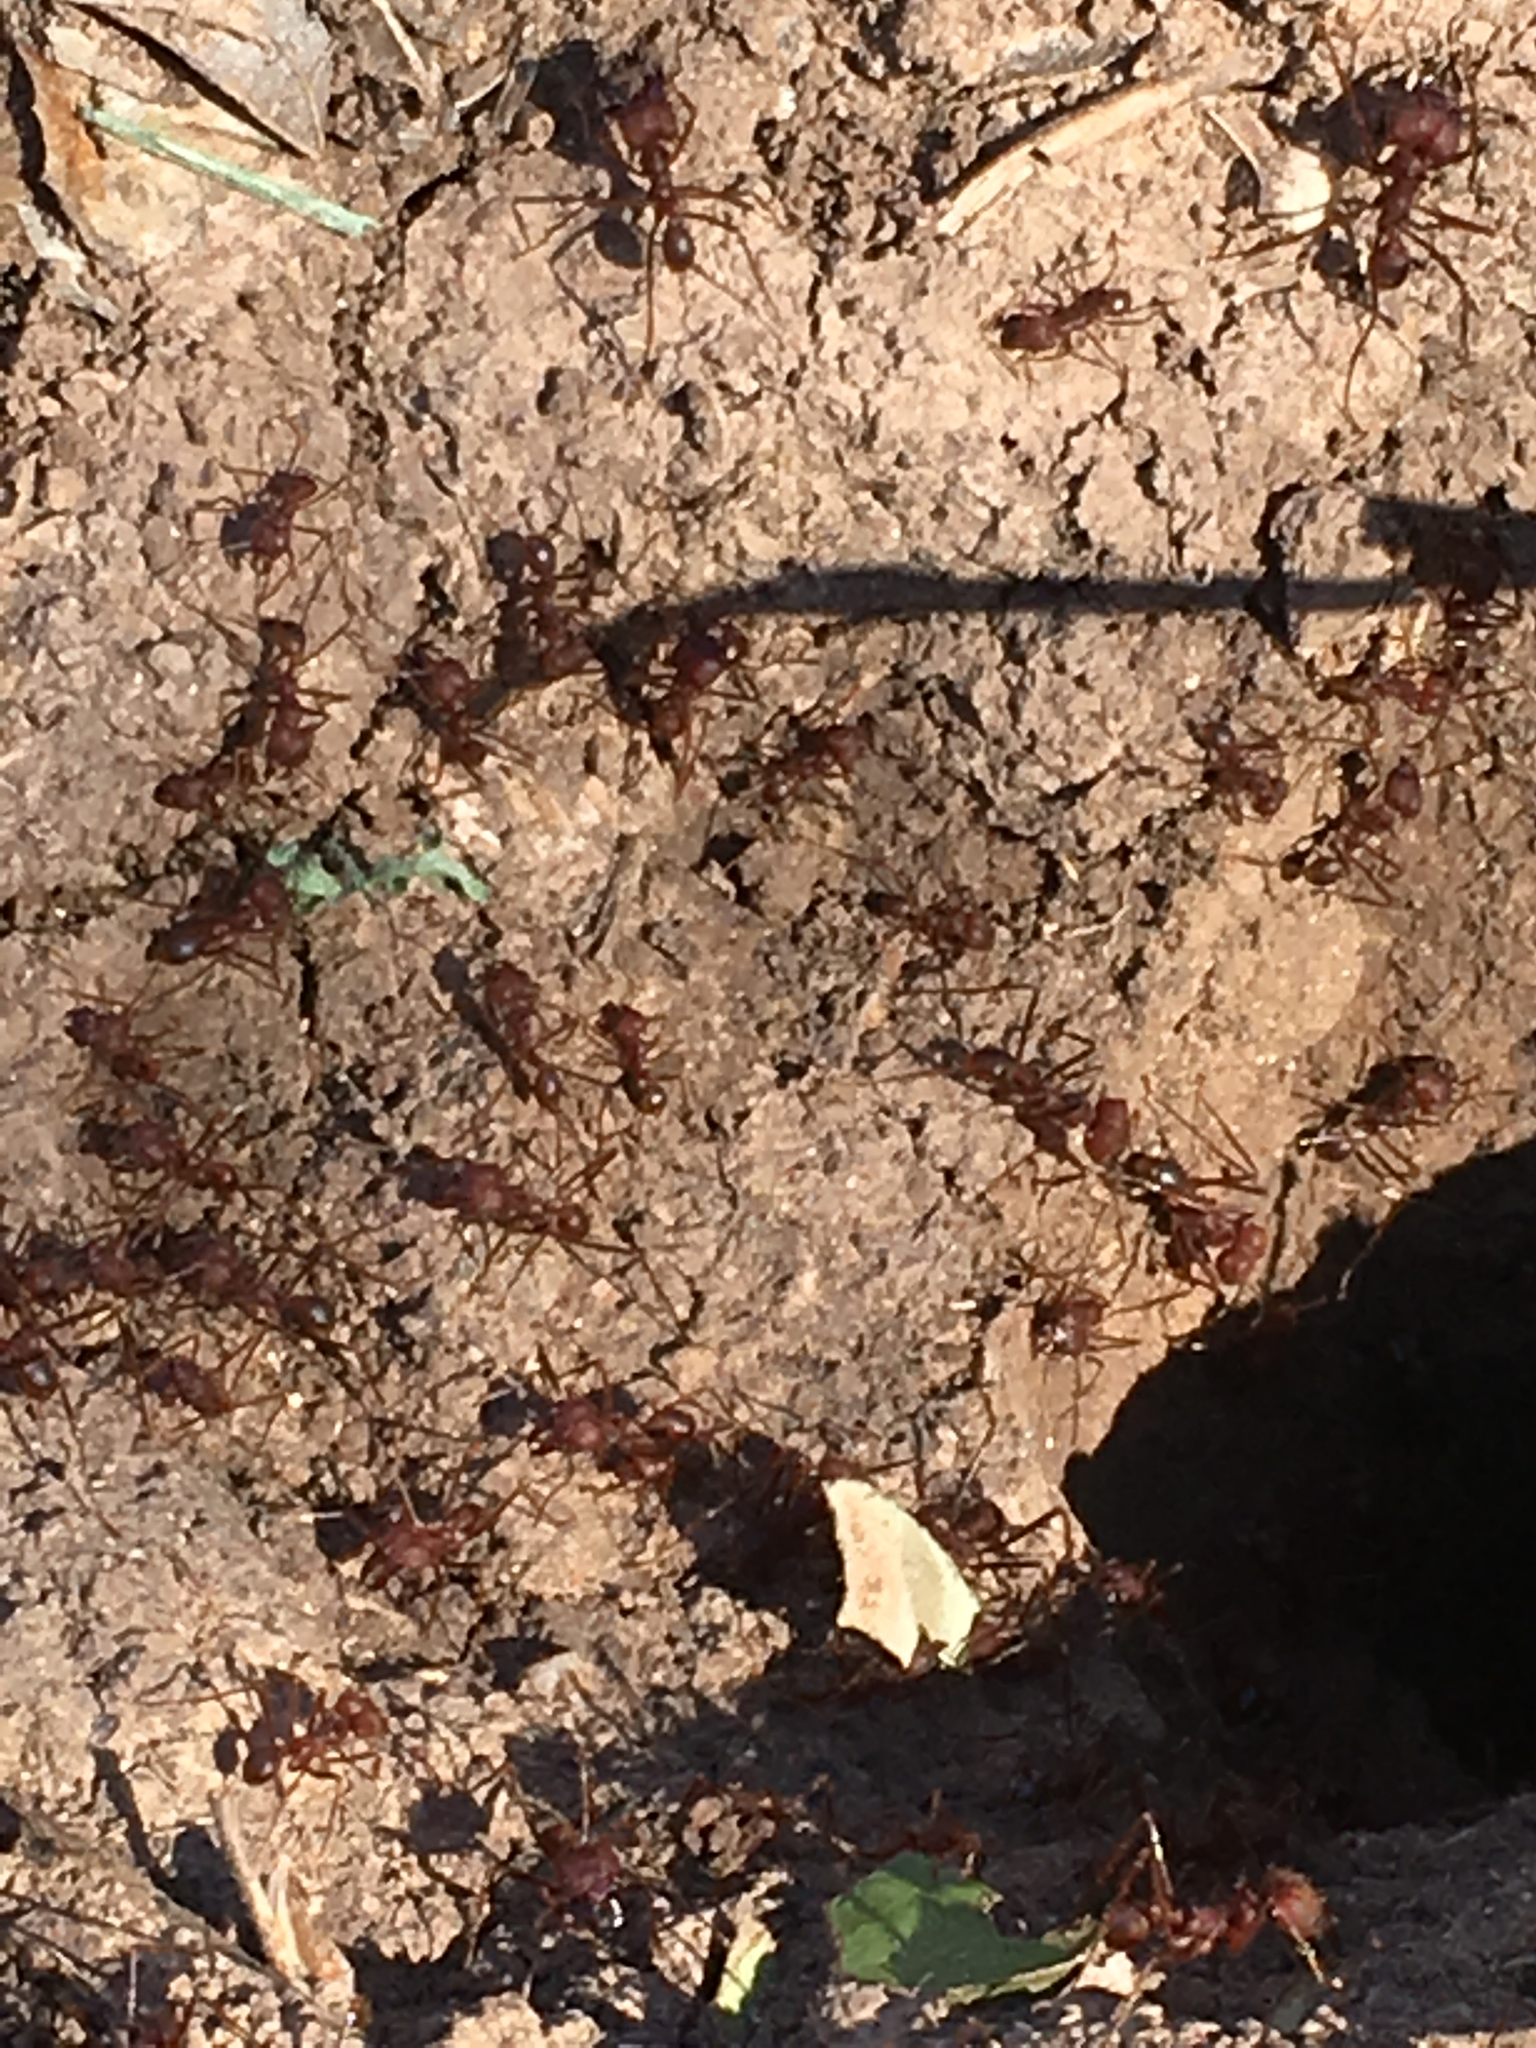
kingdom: Animalia
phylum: Arthropoda
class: Insecta
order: Hymenoptera
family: Formicidae
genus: Atta
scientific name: Atta texana
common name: Texas leafcutting ant
